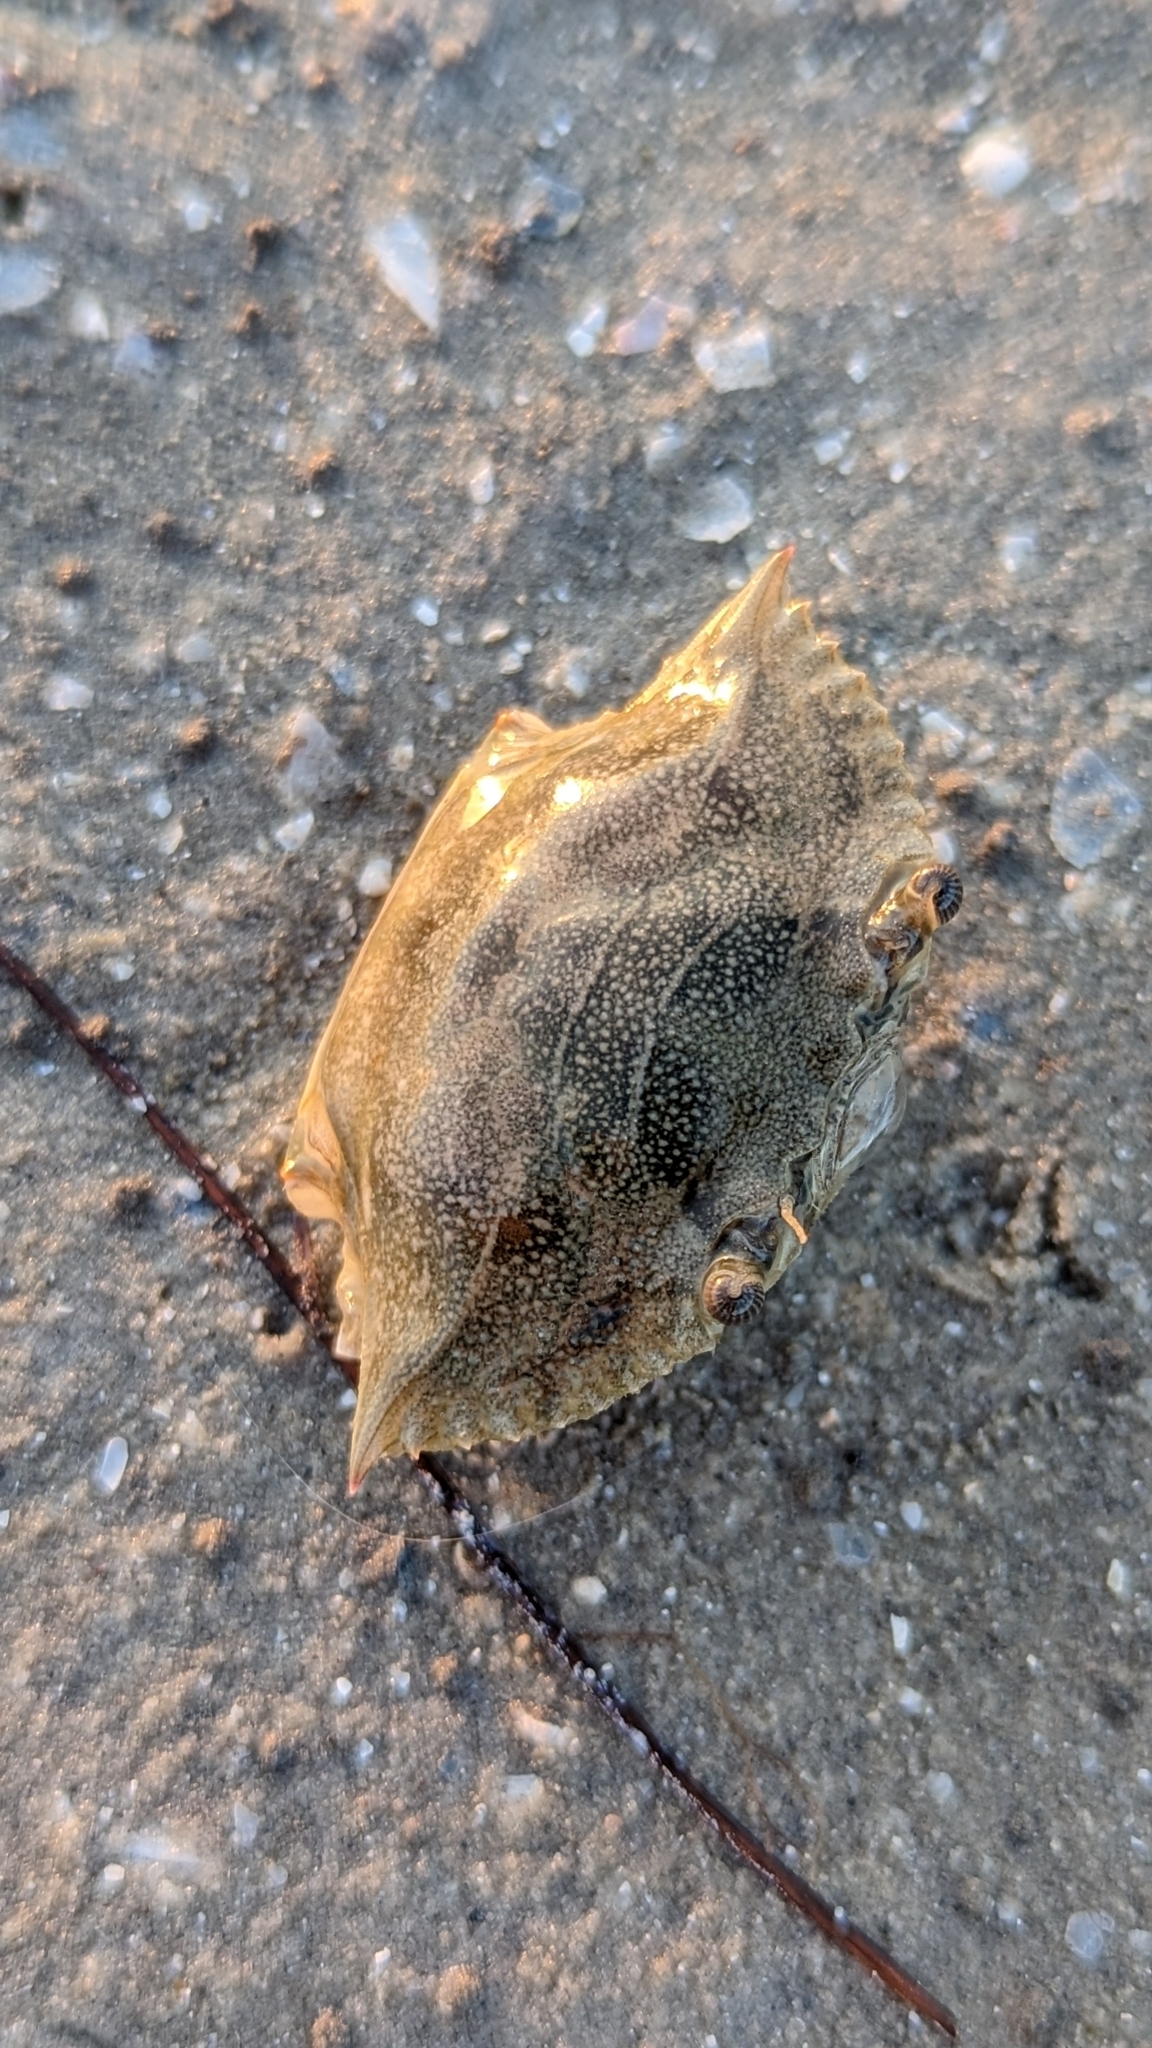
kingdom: Animalia
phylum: Arthropoda
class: Malacostraca
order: Decapoda
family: Portunidae
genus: Callinectes
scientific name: Callinectes sapidus
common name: Blue crab
